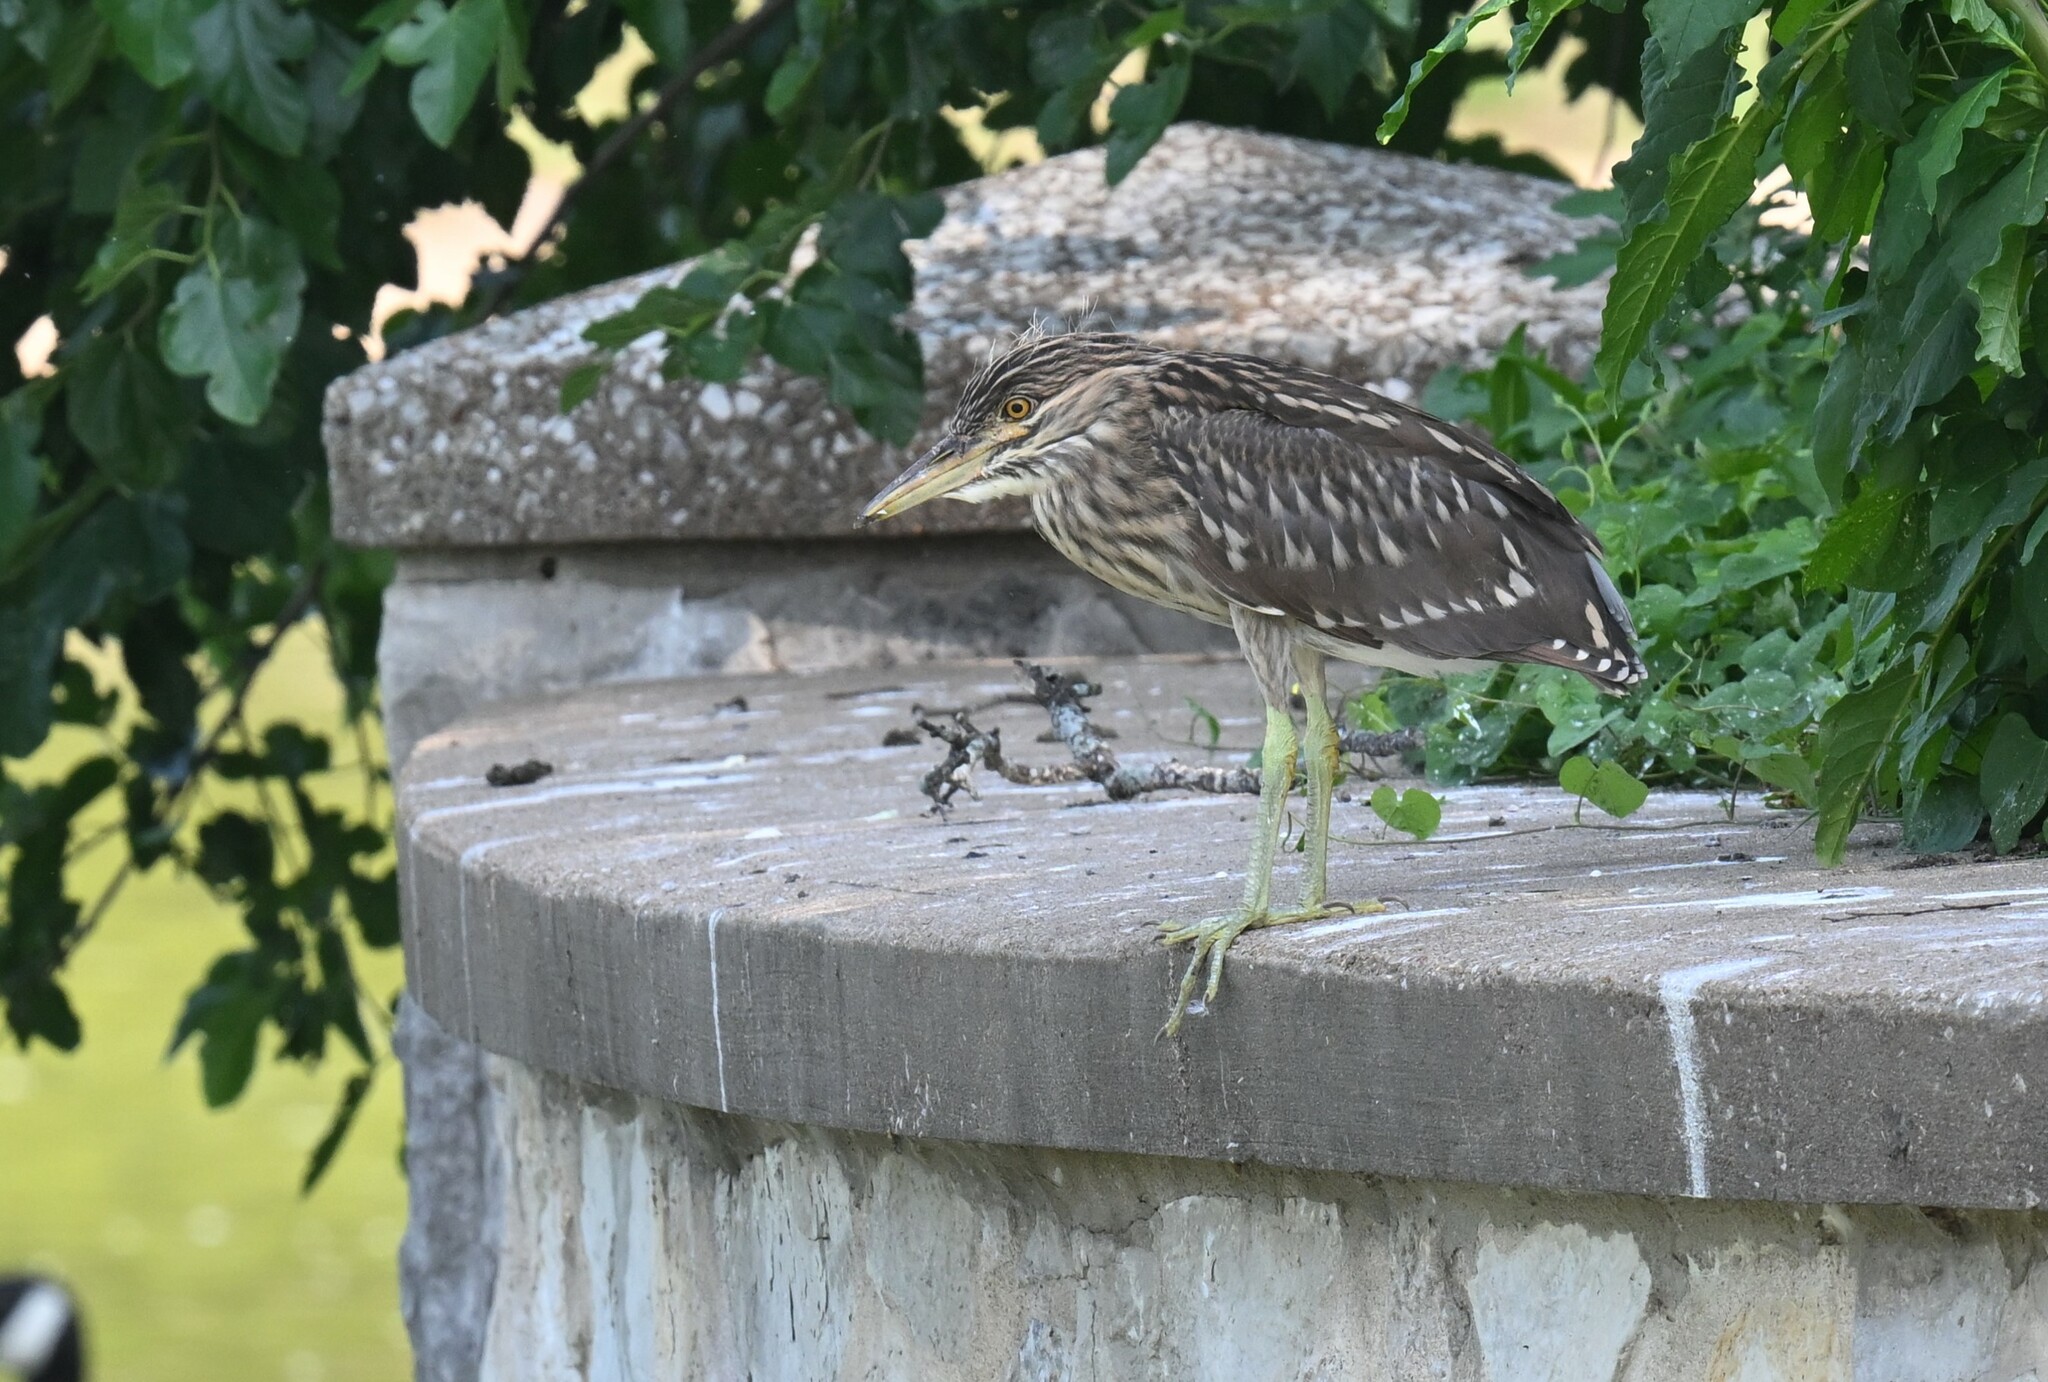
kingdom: Animalia
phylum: Chordata
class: Aves
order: Pelecaniformes
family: Ardeidae
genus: Nycticorax
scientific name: Nycticorax nycticorax
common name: Black-crowned night heron
